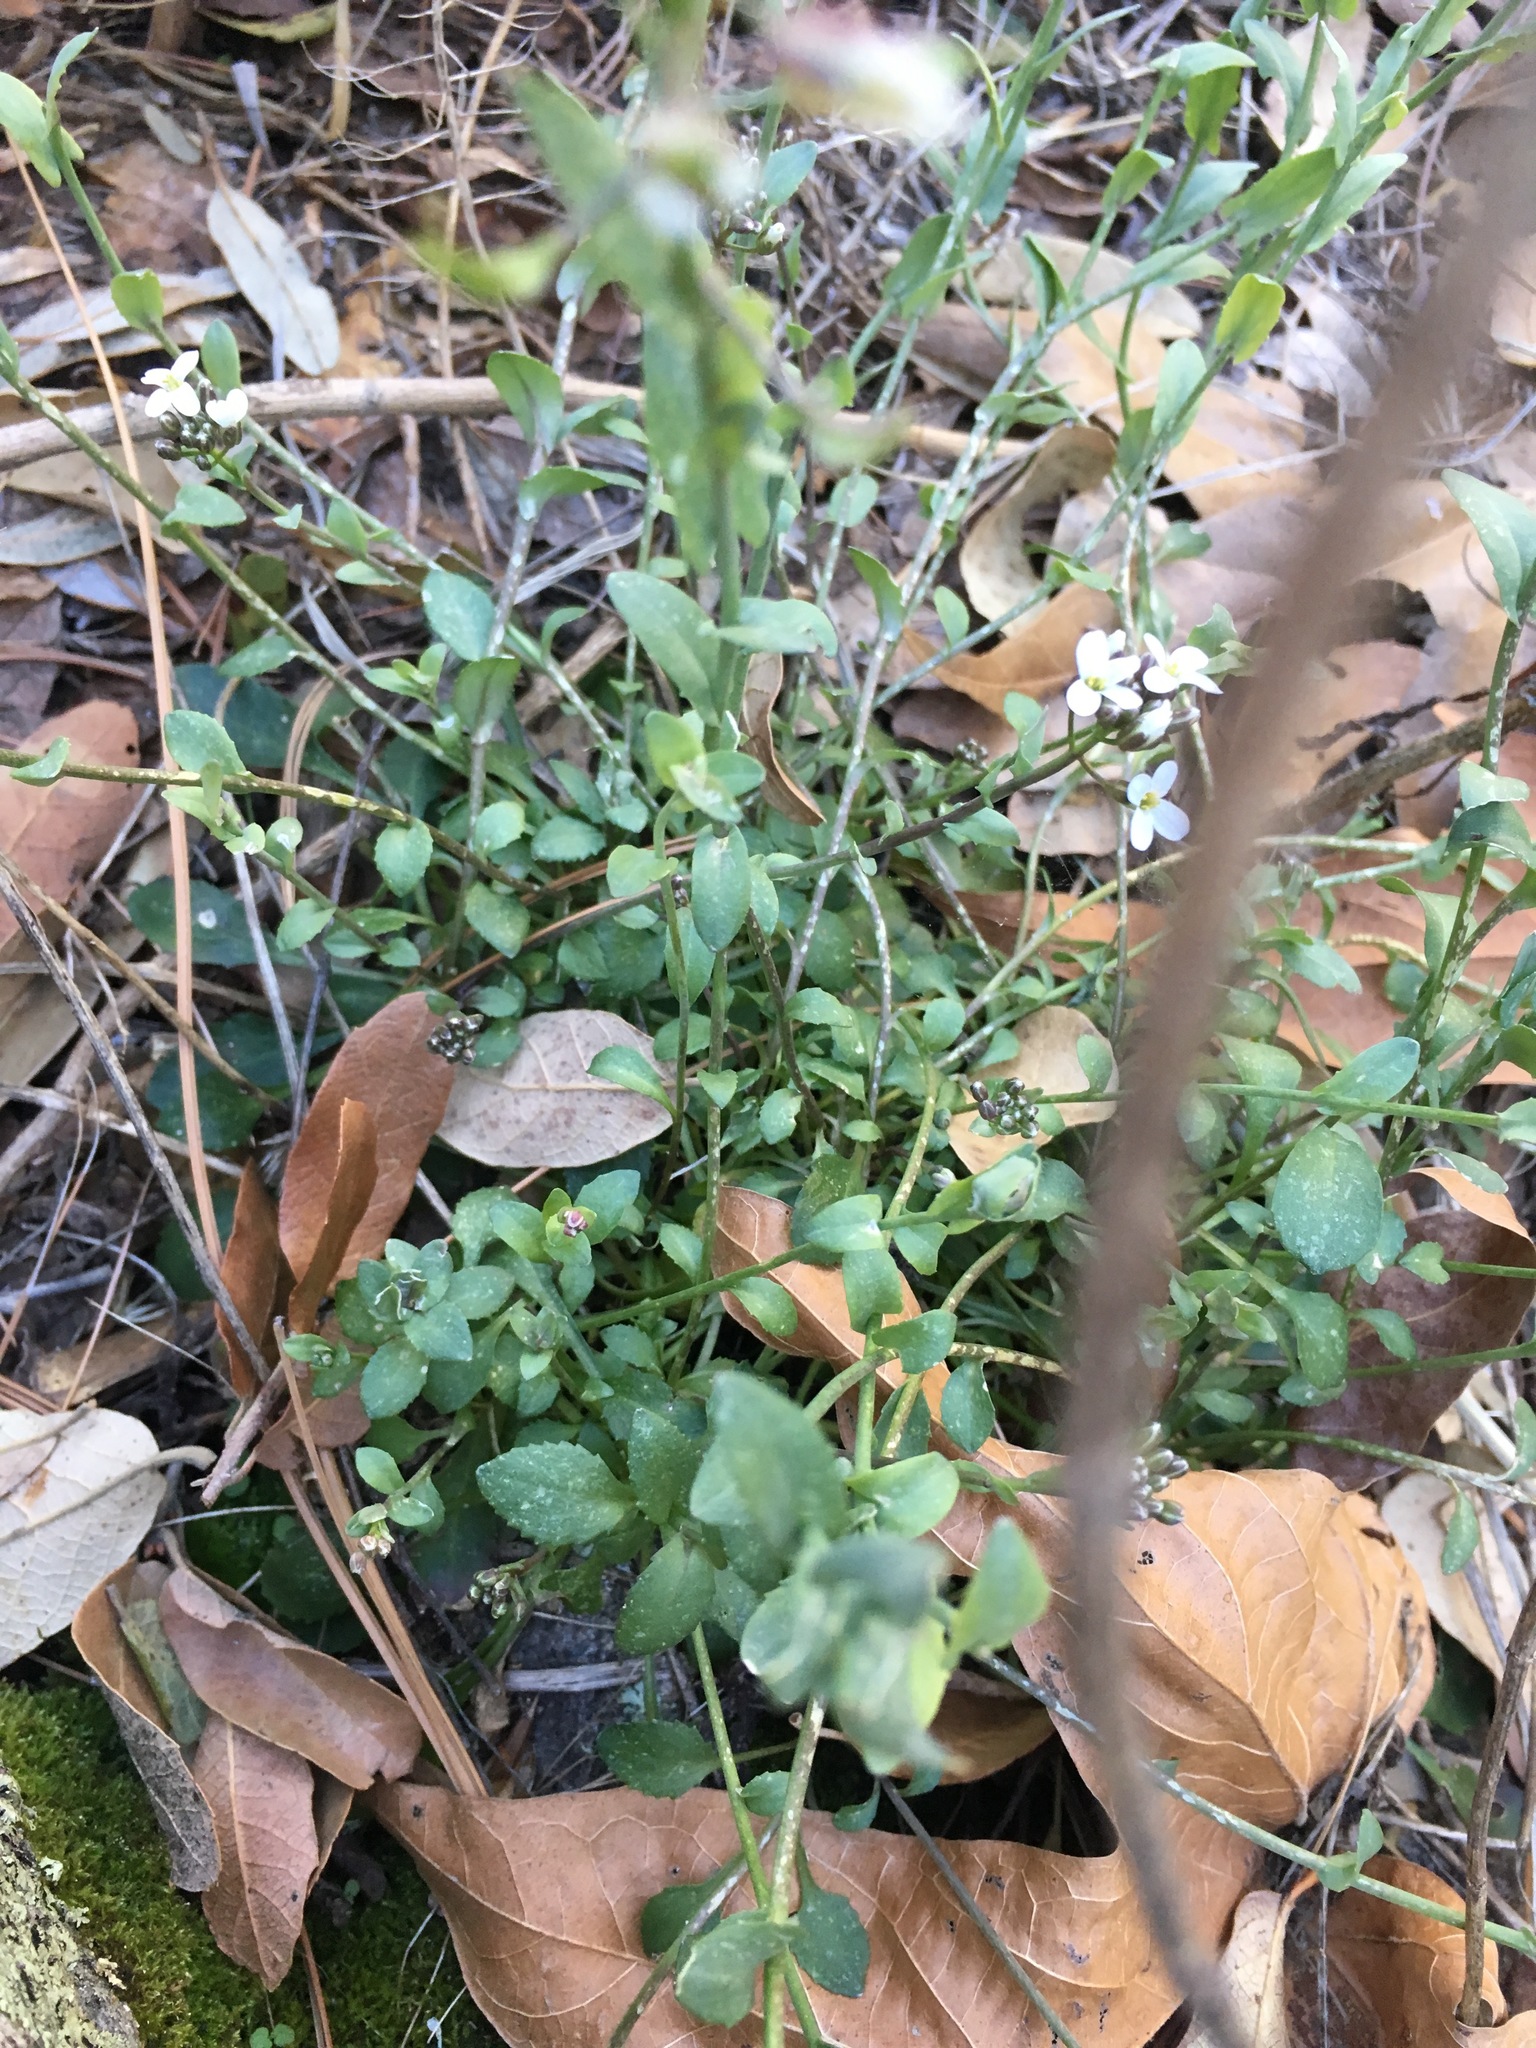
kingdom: Plantae
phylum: Tracheophyta
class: Magnoliopsida
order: Brassicales
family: Brassicaceae
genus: Noccaea
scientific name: Noccaea fendleri
